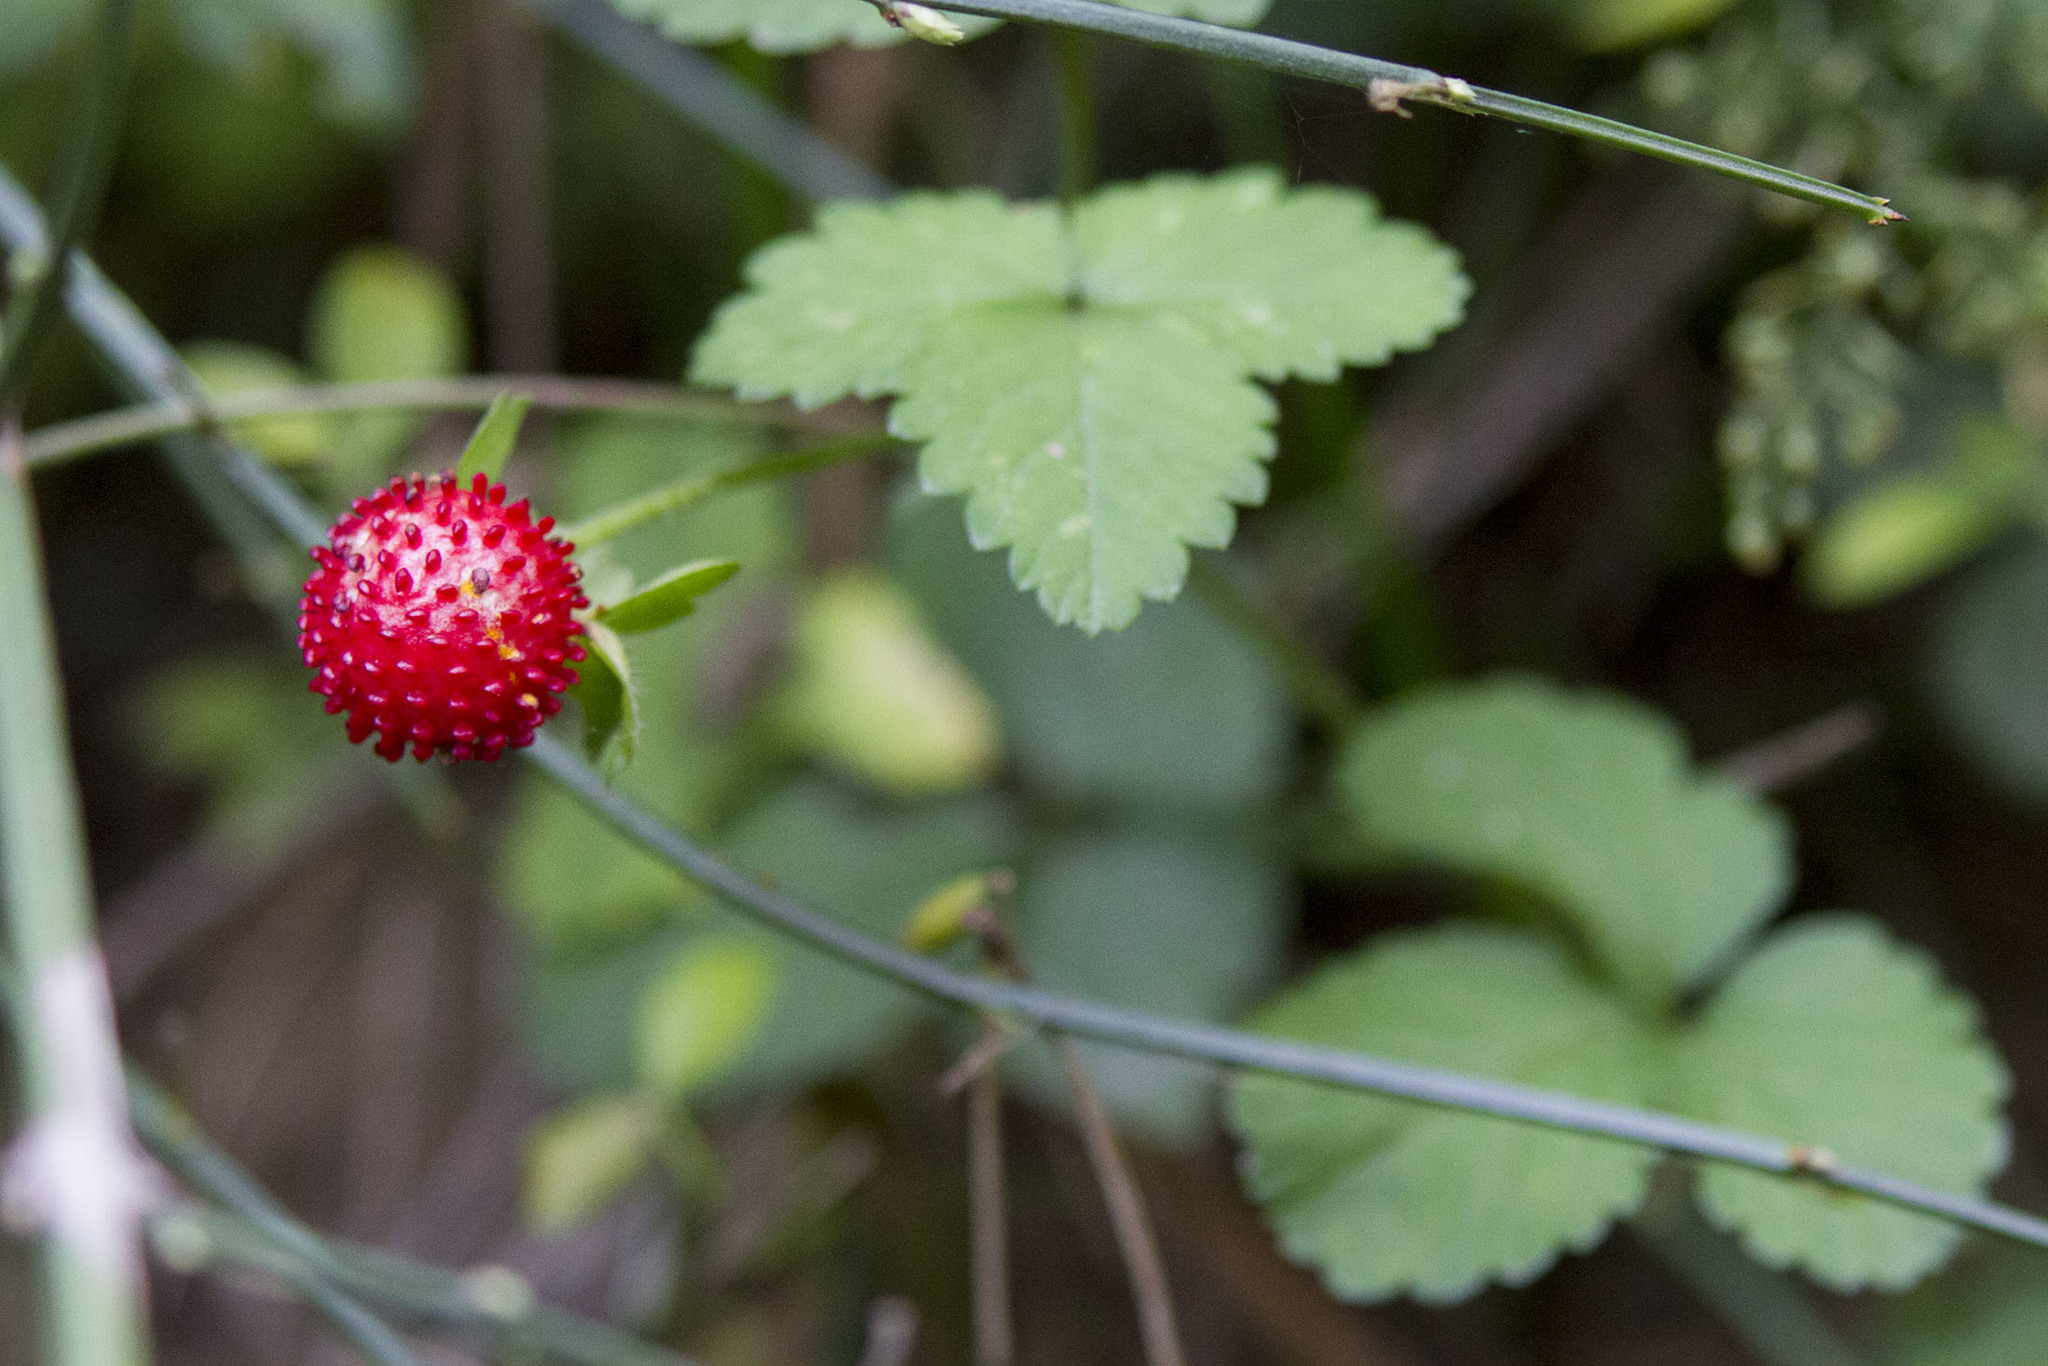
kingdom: Plantae
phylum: Tracheophyta
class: Magnoliopsida
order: Rosales
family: Rosaceae
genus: Potentilla
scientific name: Potentilla indica
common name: Yellow-flowered strawberry
